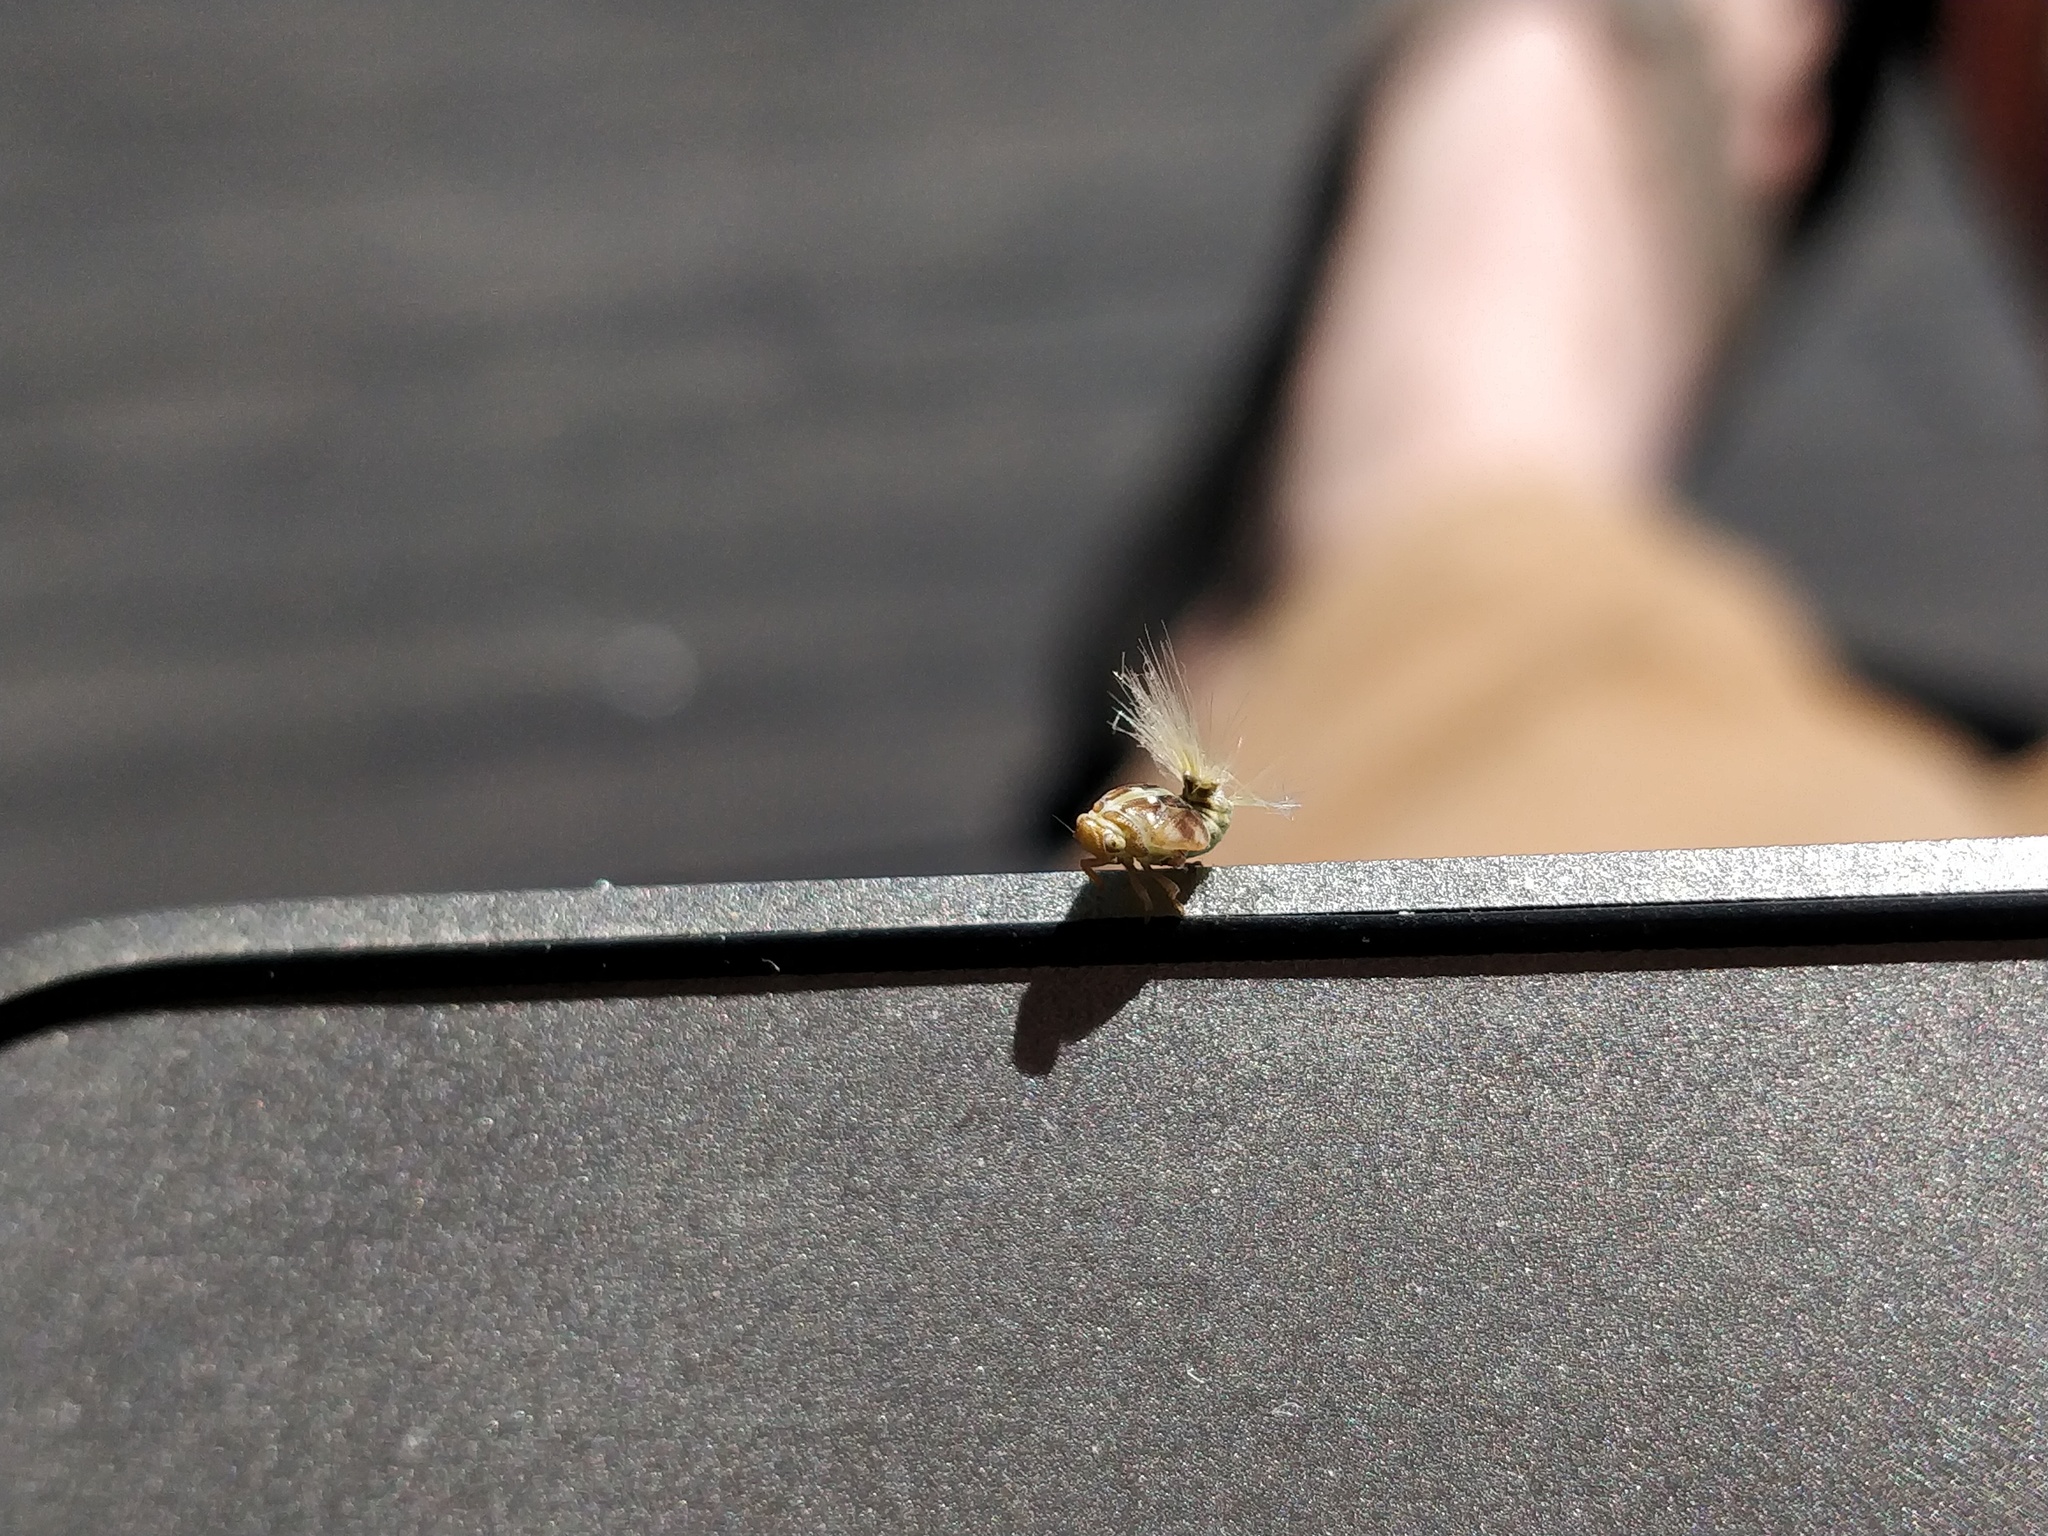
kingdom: Animalia
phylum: Arthropoda
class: Insecta
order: Hemiptera
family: Ricaniidae
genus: Scolypopa
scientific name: Scolypopa australis
